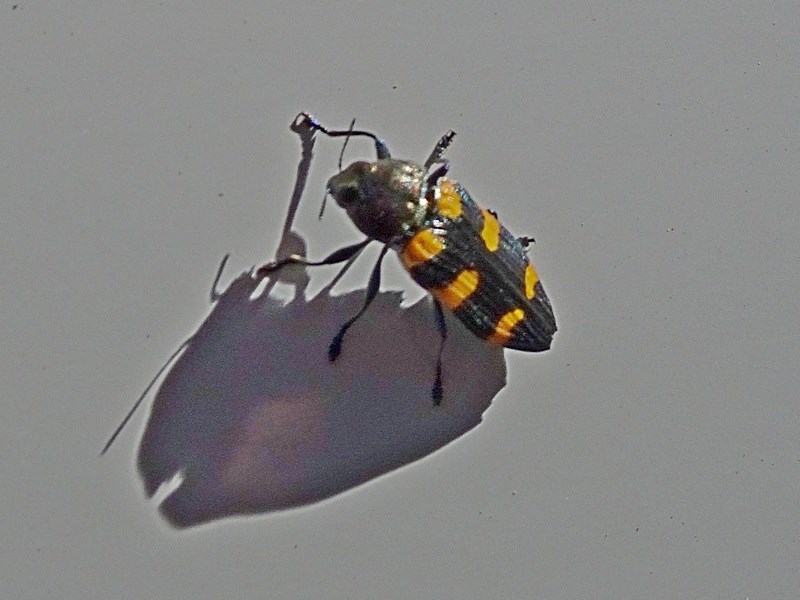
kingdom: Animalia
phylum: Arthropoda
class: Insecta
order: Coleoptera
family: Buprestidae
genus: Castiarina
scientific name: Castiarina imitator
